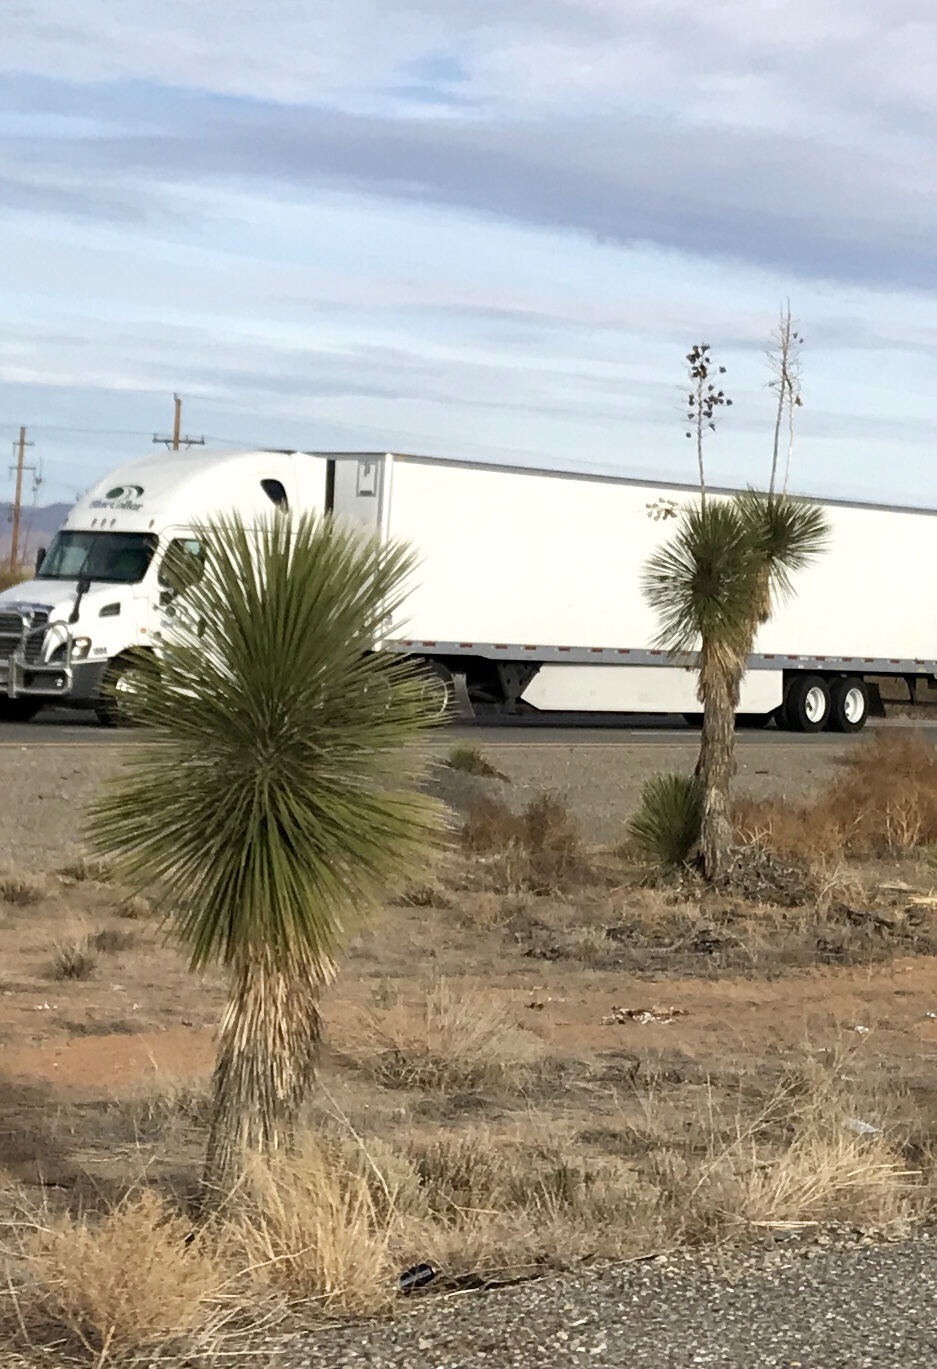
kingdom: Plantae
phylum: Tracheophyta
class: Liliopsida
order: Asparagales
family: Asparagaceae
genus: Yucca
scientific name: Yucca elata
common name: Palmella
